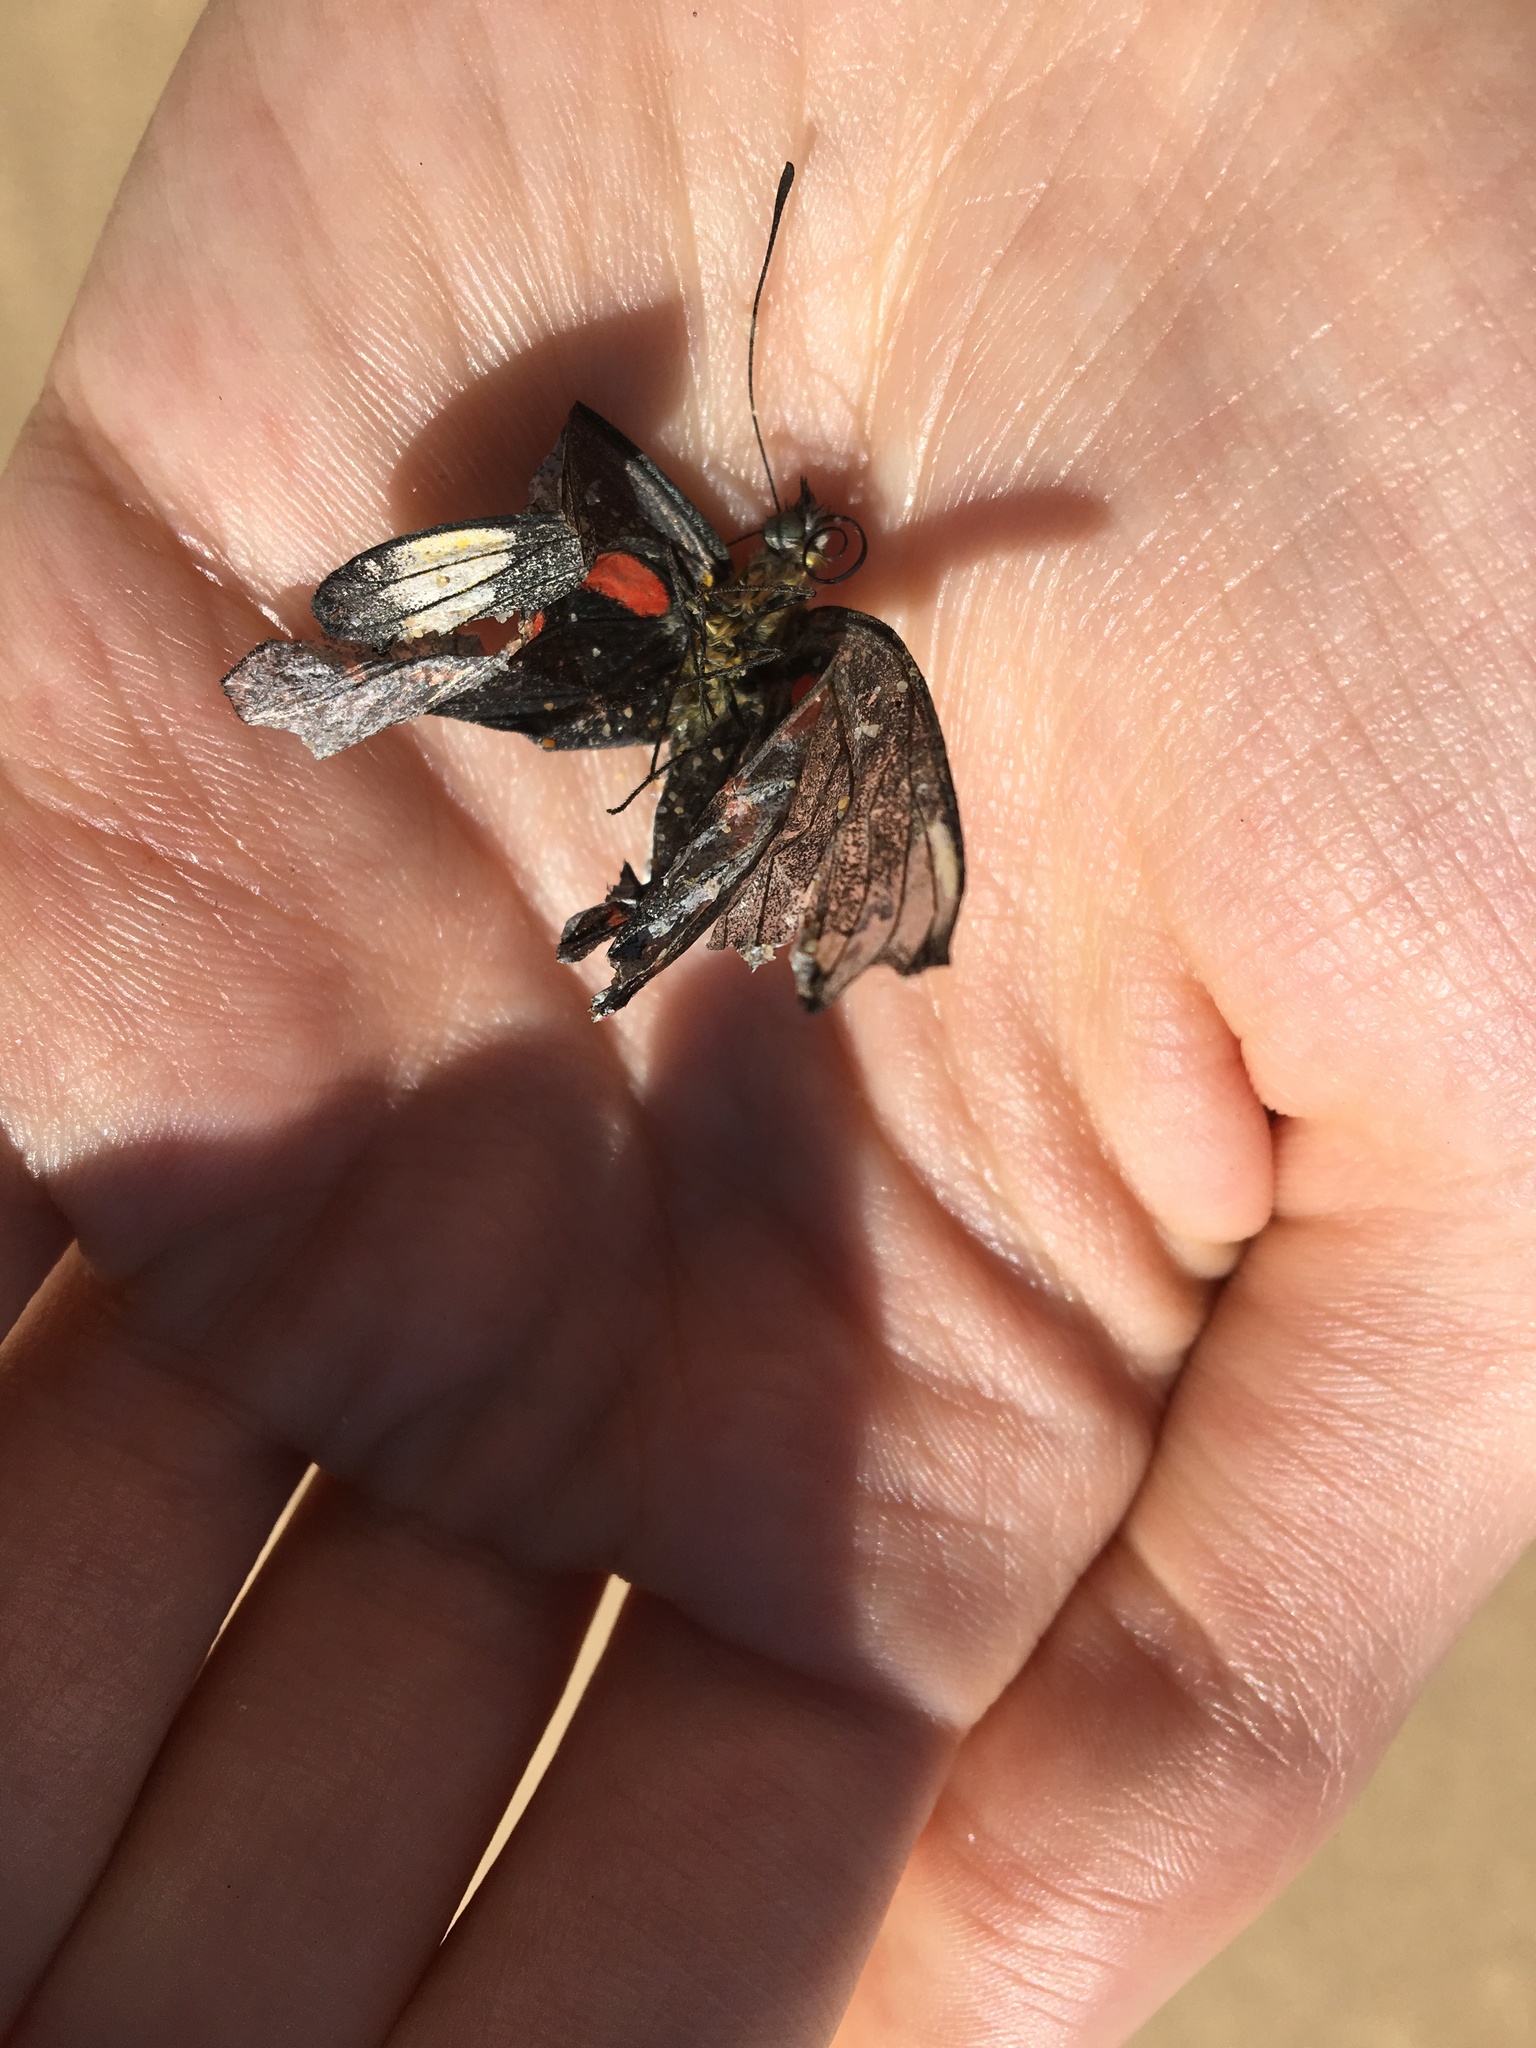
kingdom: Animalia
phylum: Arthropoda
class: Insecta
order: Lepidoptera
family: Pieridae
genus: Delias
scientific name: Delias nigrina
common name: Black jezebel
